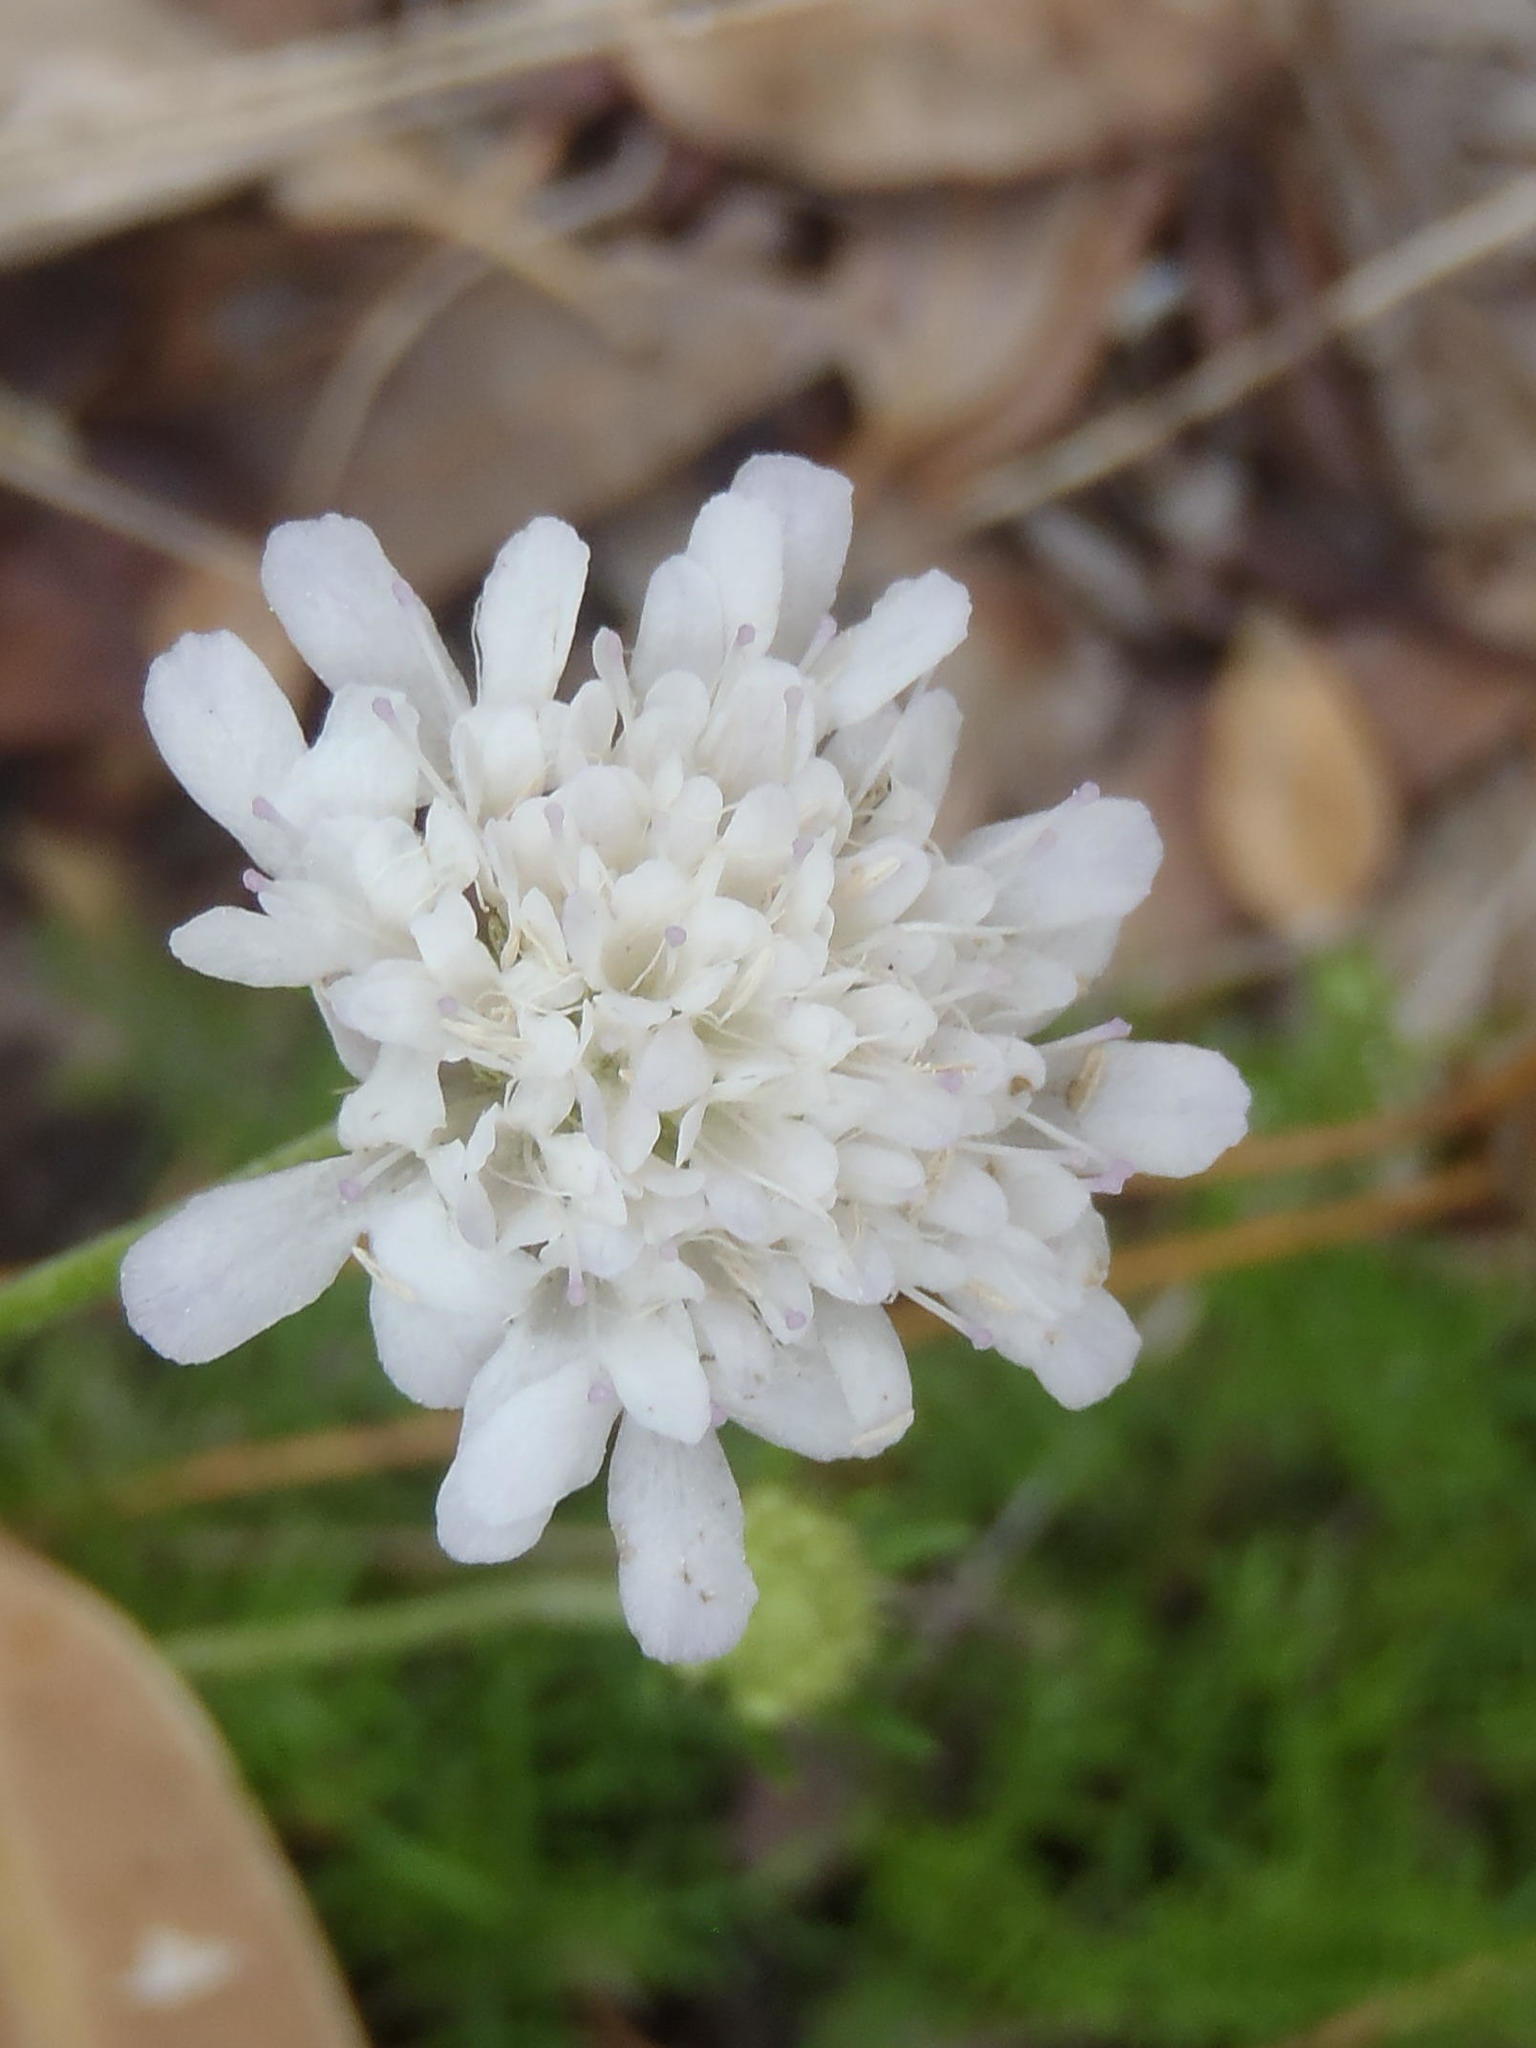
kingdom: Plantae
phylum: Tracheophyta
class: Magnoliopsida
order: Dipsacales
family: Caprifoliaceae
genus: Scabiosa
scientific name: Scabiosa columbaria
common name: Small scabious
